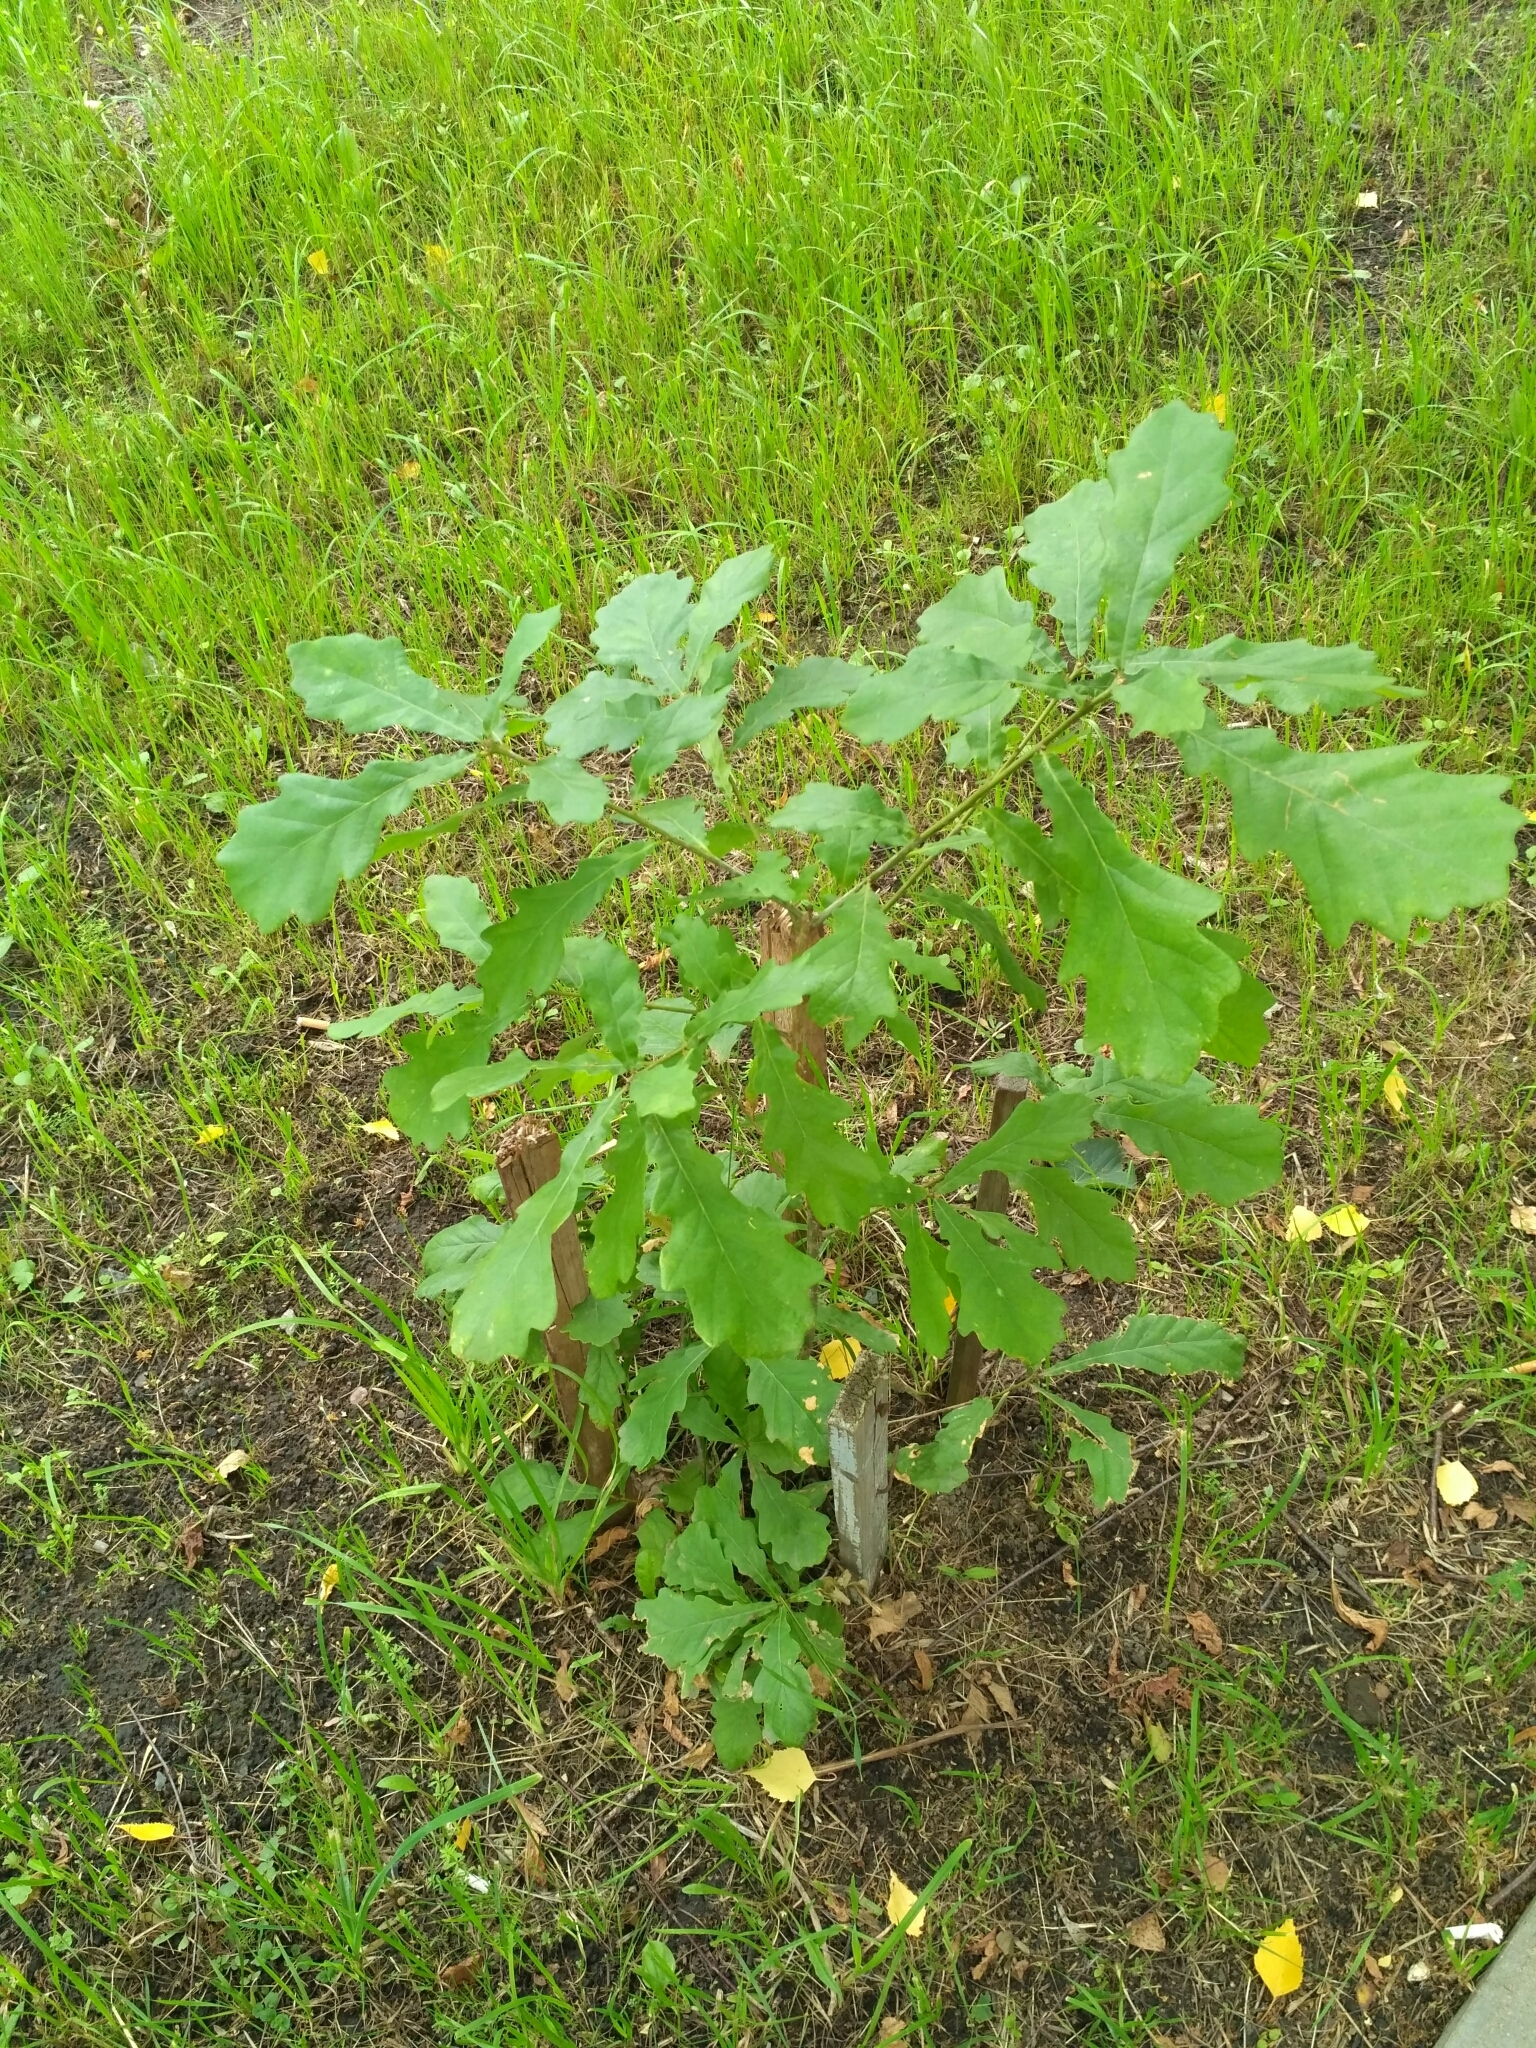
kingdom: Plantae
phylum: Tracheophyta
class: Magnoliopsida
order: Fagales
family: Fagaceae
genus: Quercus
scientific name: Quercus robur
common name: Pedunculate oak
